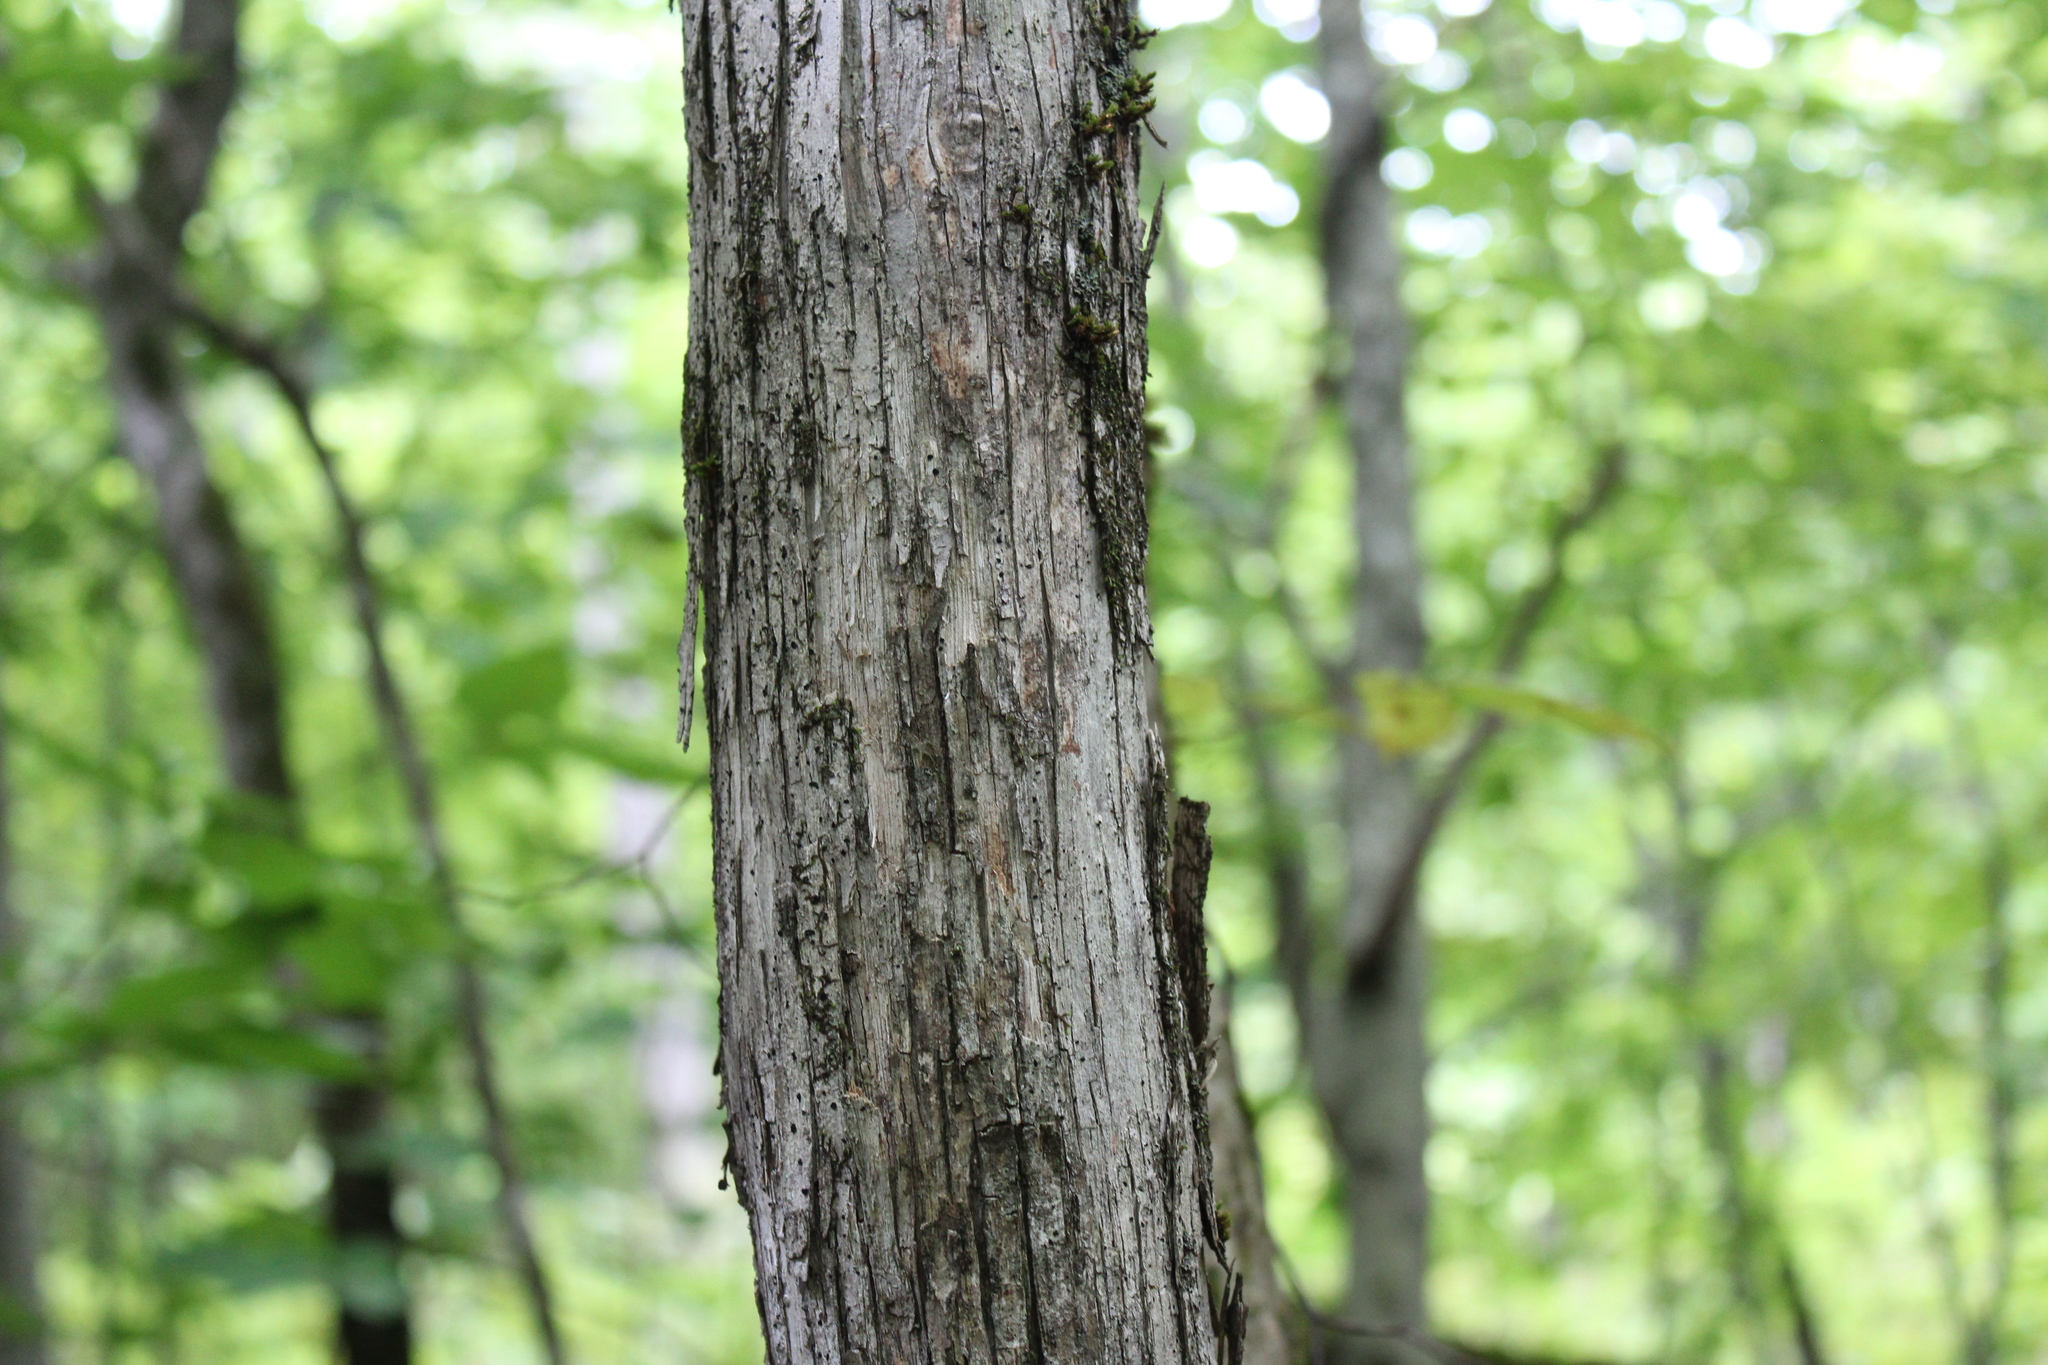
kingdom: Plantae
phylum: Tracheophyta
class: Magnoliopsida
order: Fagales
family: Betulaceae
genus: Ostrya
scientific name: Ostrya virginiana
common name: Ironwood
